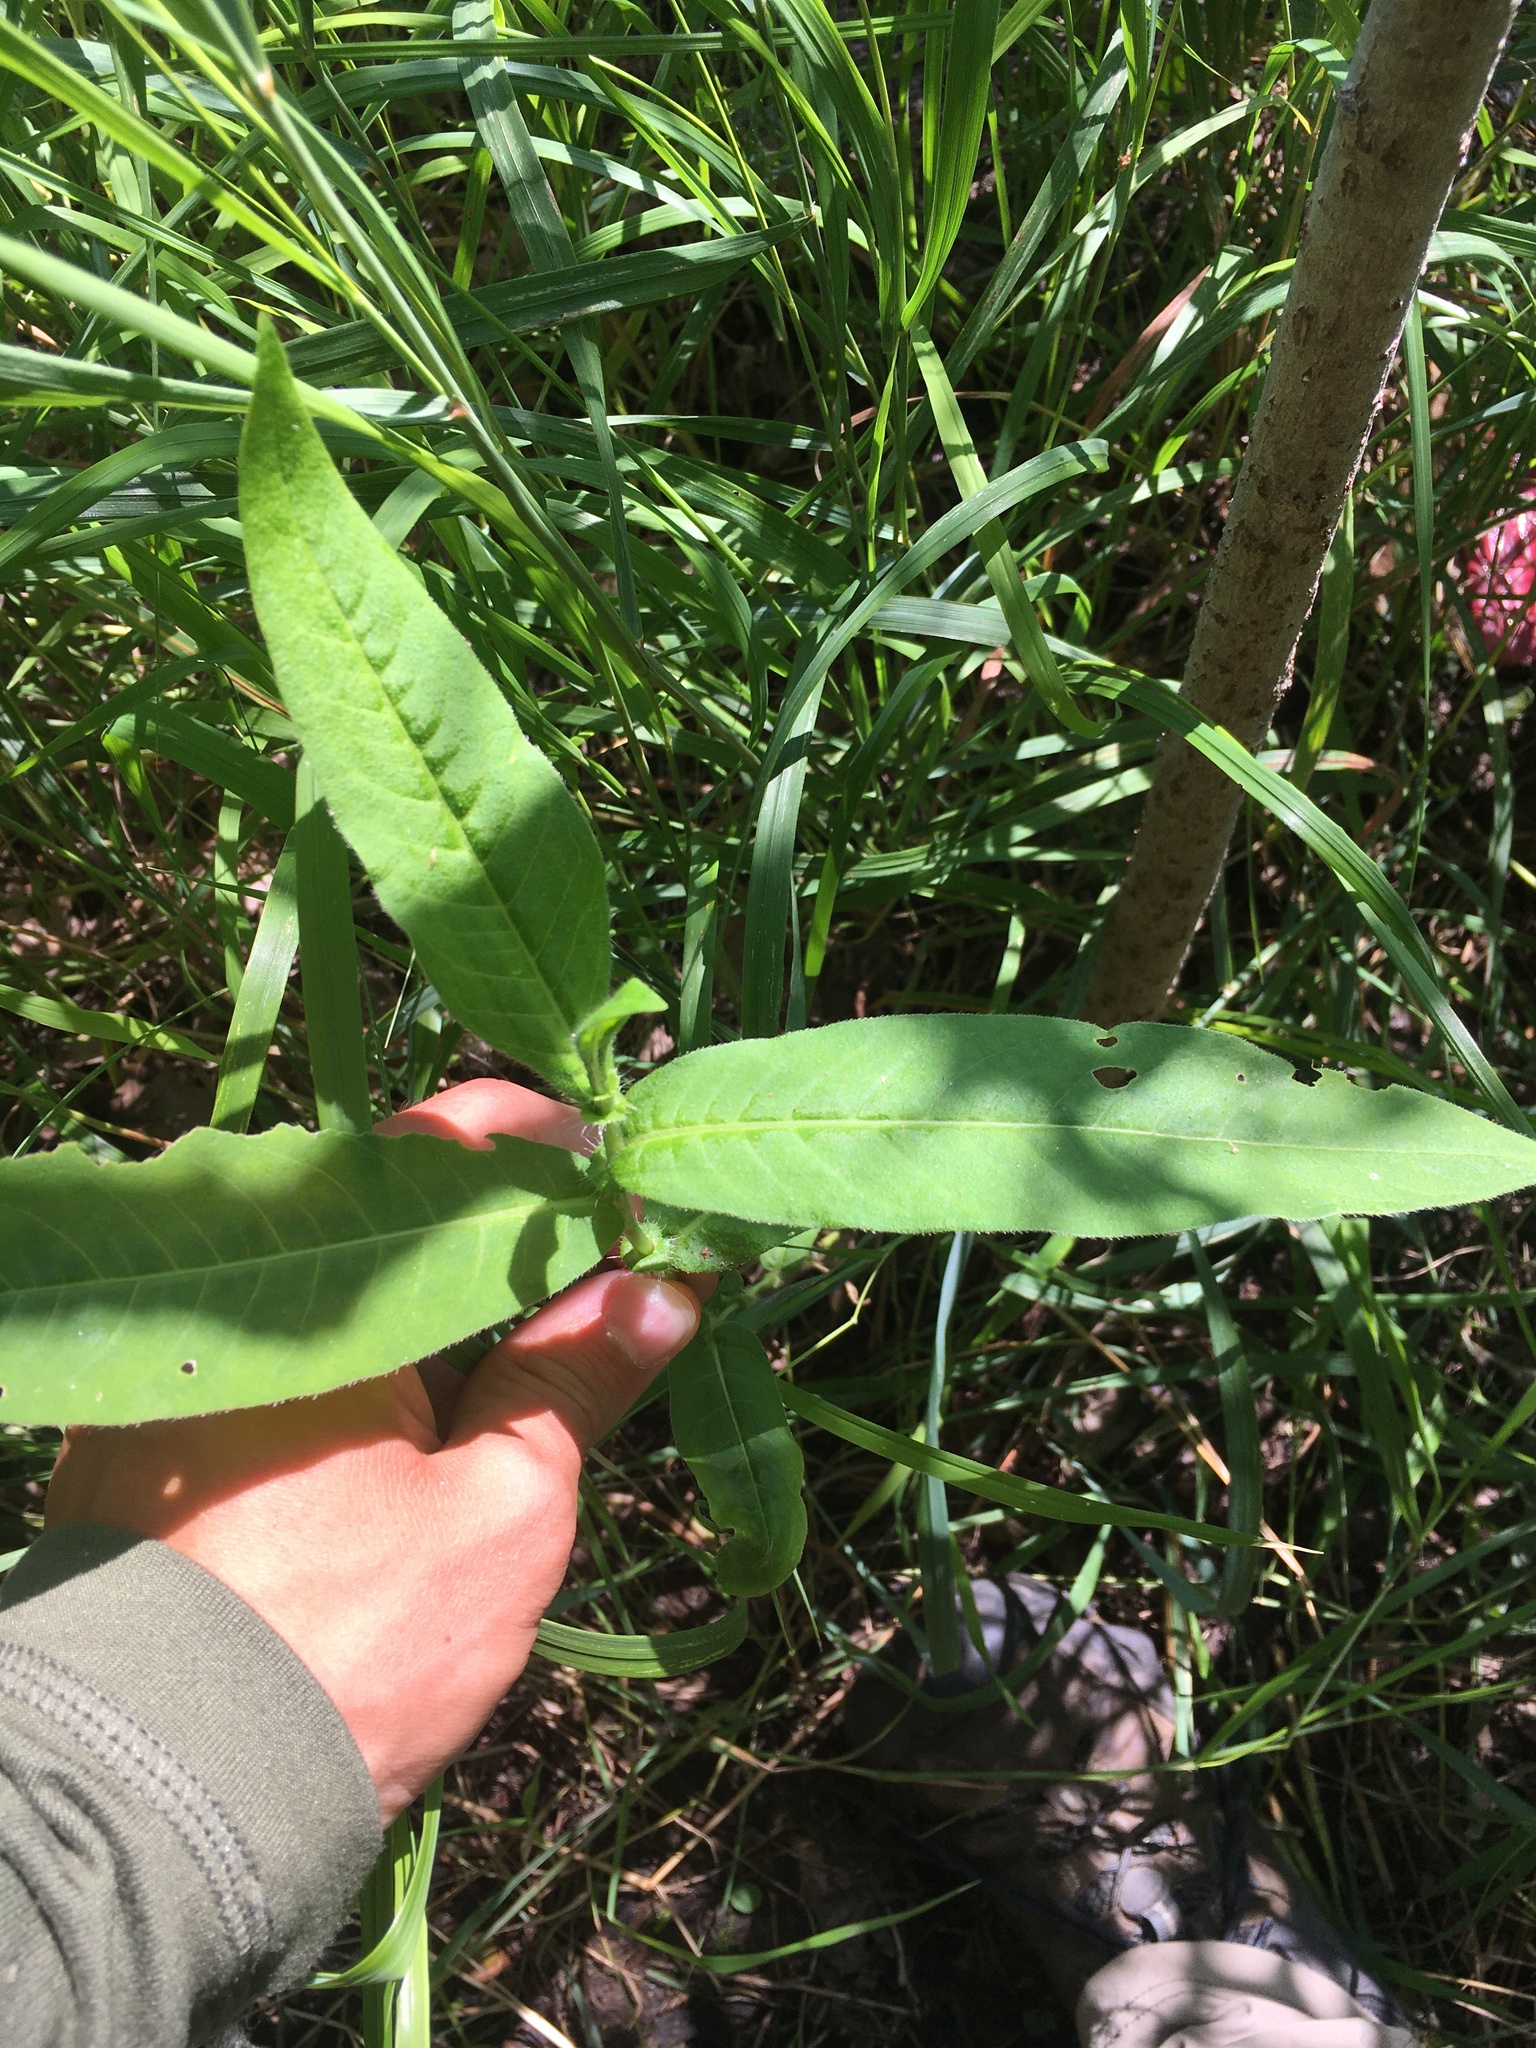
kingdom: Plantae
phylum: Tracheophyta
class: Magnoliopsida
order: Caryophyllales
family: Polygonaceae
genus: Persicaria
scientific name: Persicaria amphibia
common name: Amphibious bistort
